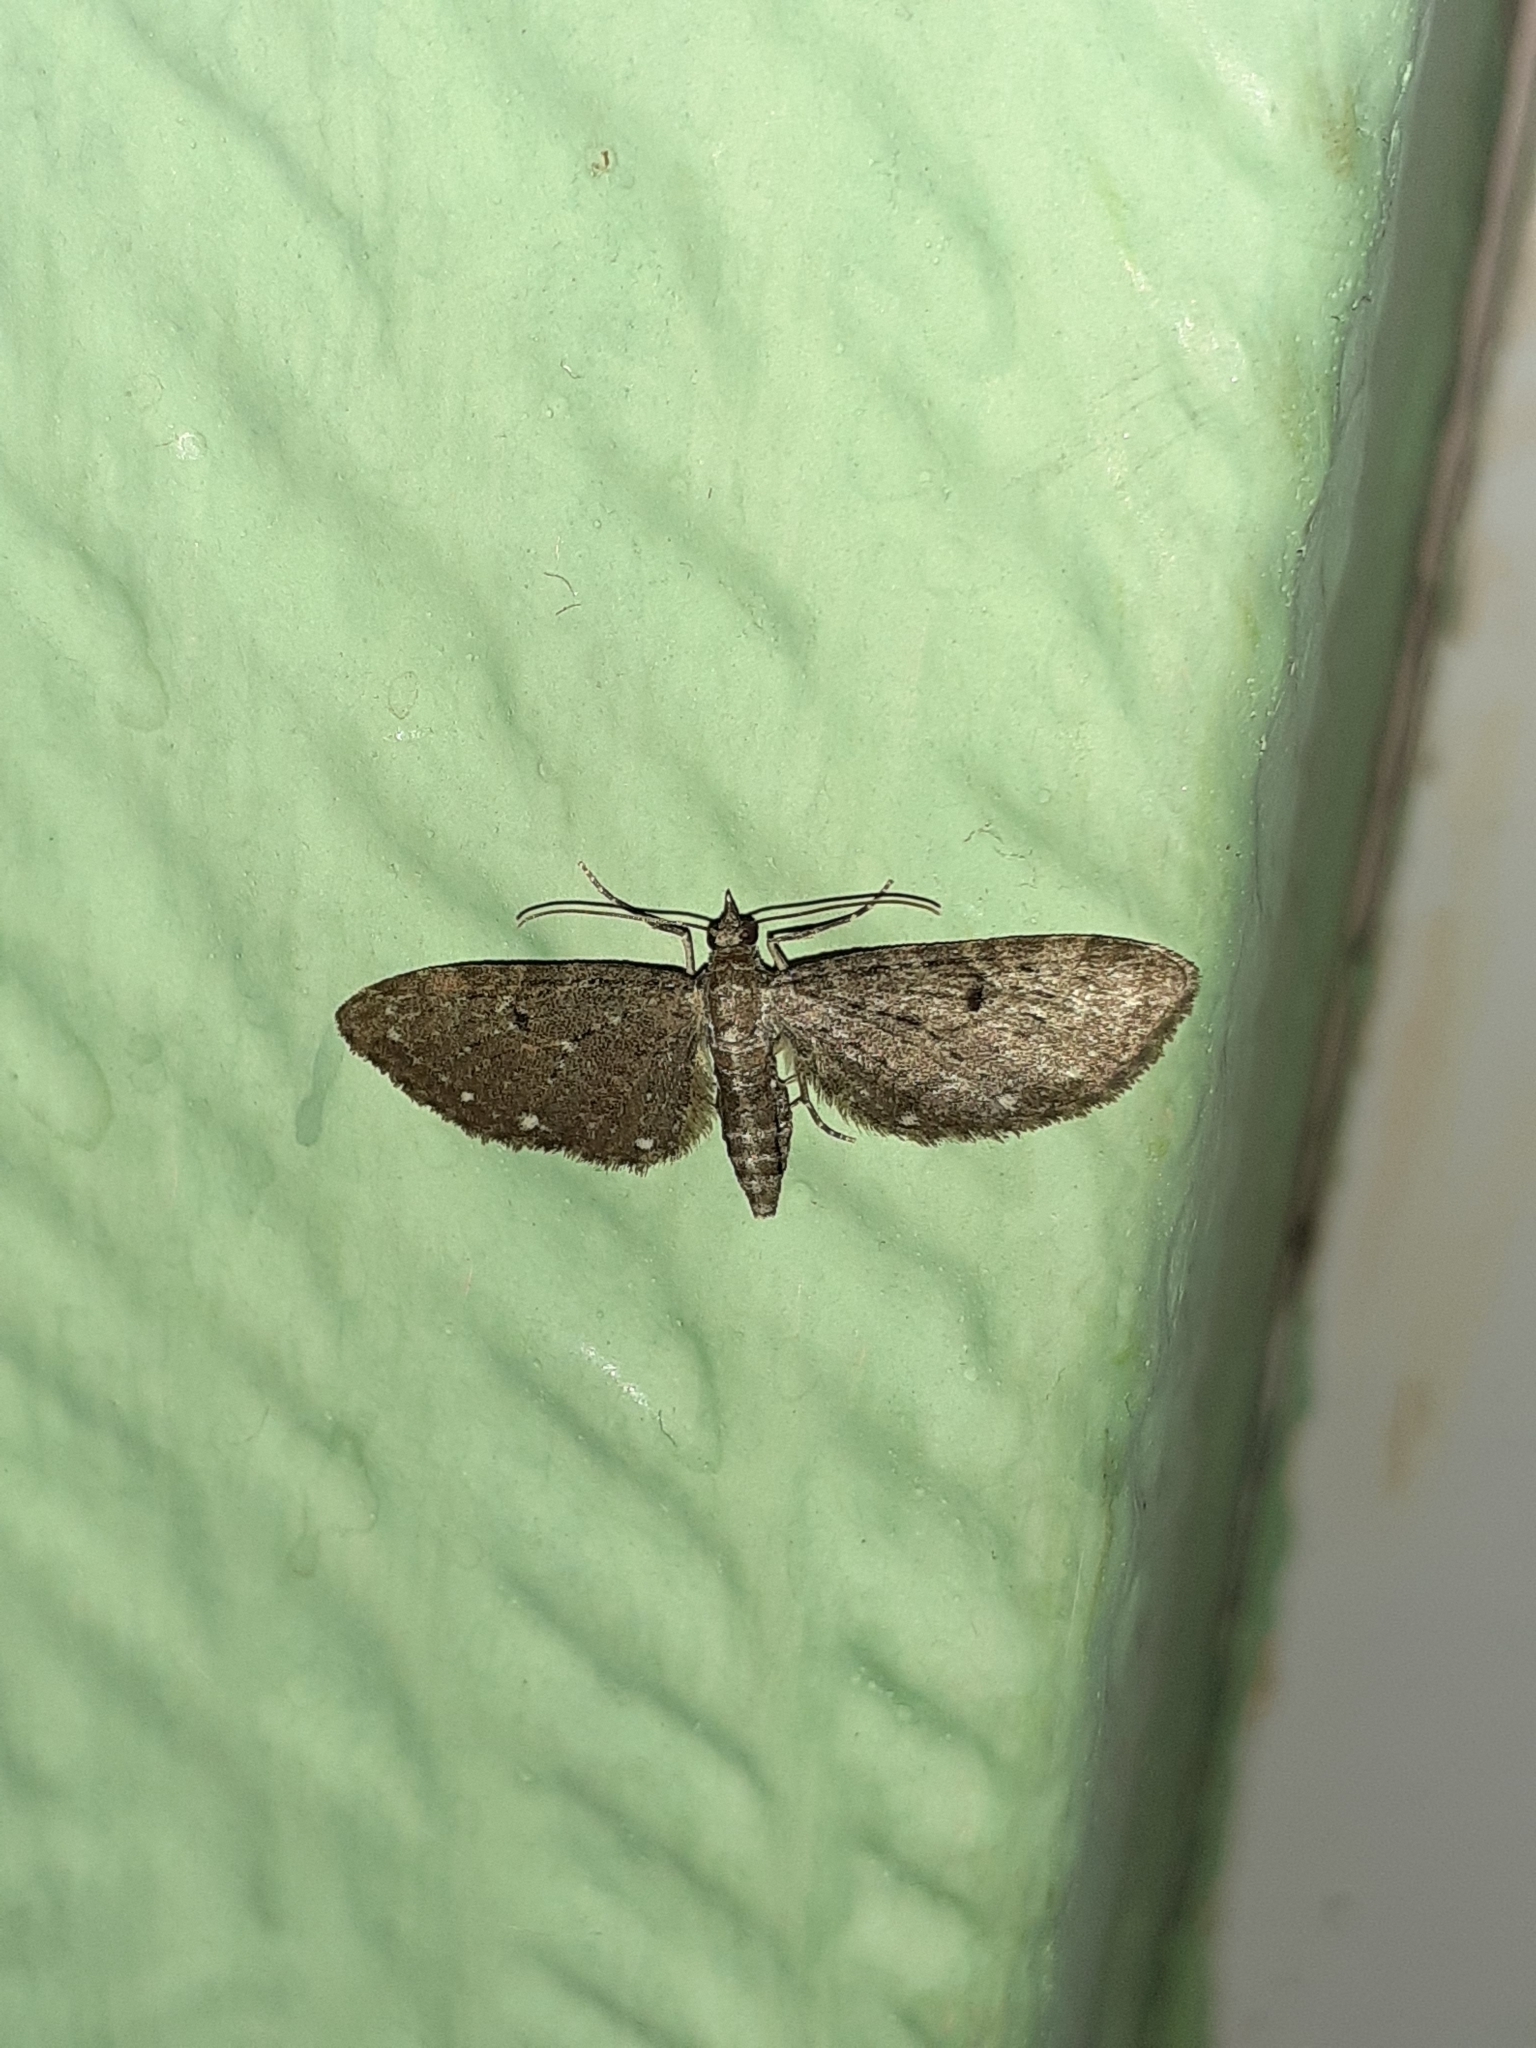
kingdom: Animalia
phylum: Arthropoda
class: Insecta
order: Lepidoptera
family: Geometridae
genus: Eupithecia
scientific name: Eupithecia tripunctaria
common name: White-spotted pug
